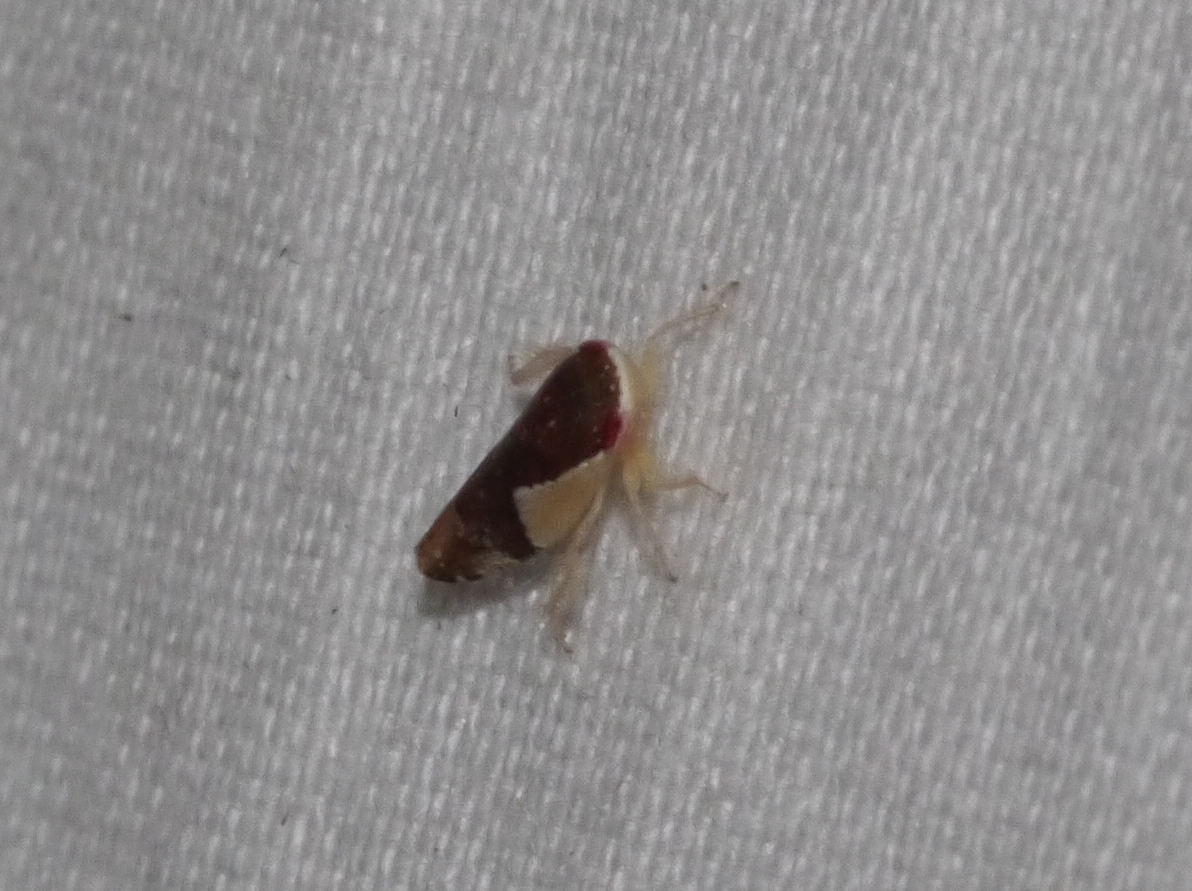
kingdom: Animalia
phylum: Arthropoda
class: Insecta
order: Hemiptera
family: Cicadellidae
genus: Norvellina
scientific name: Norvellina pulchella
